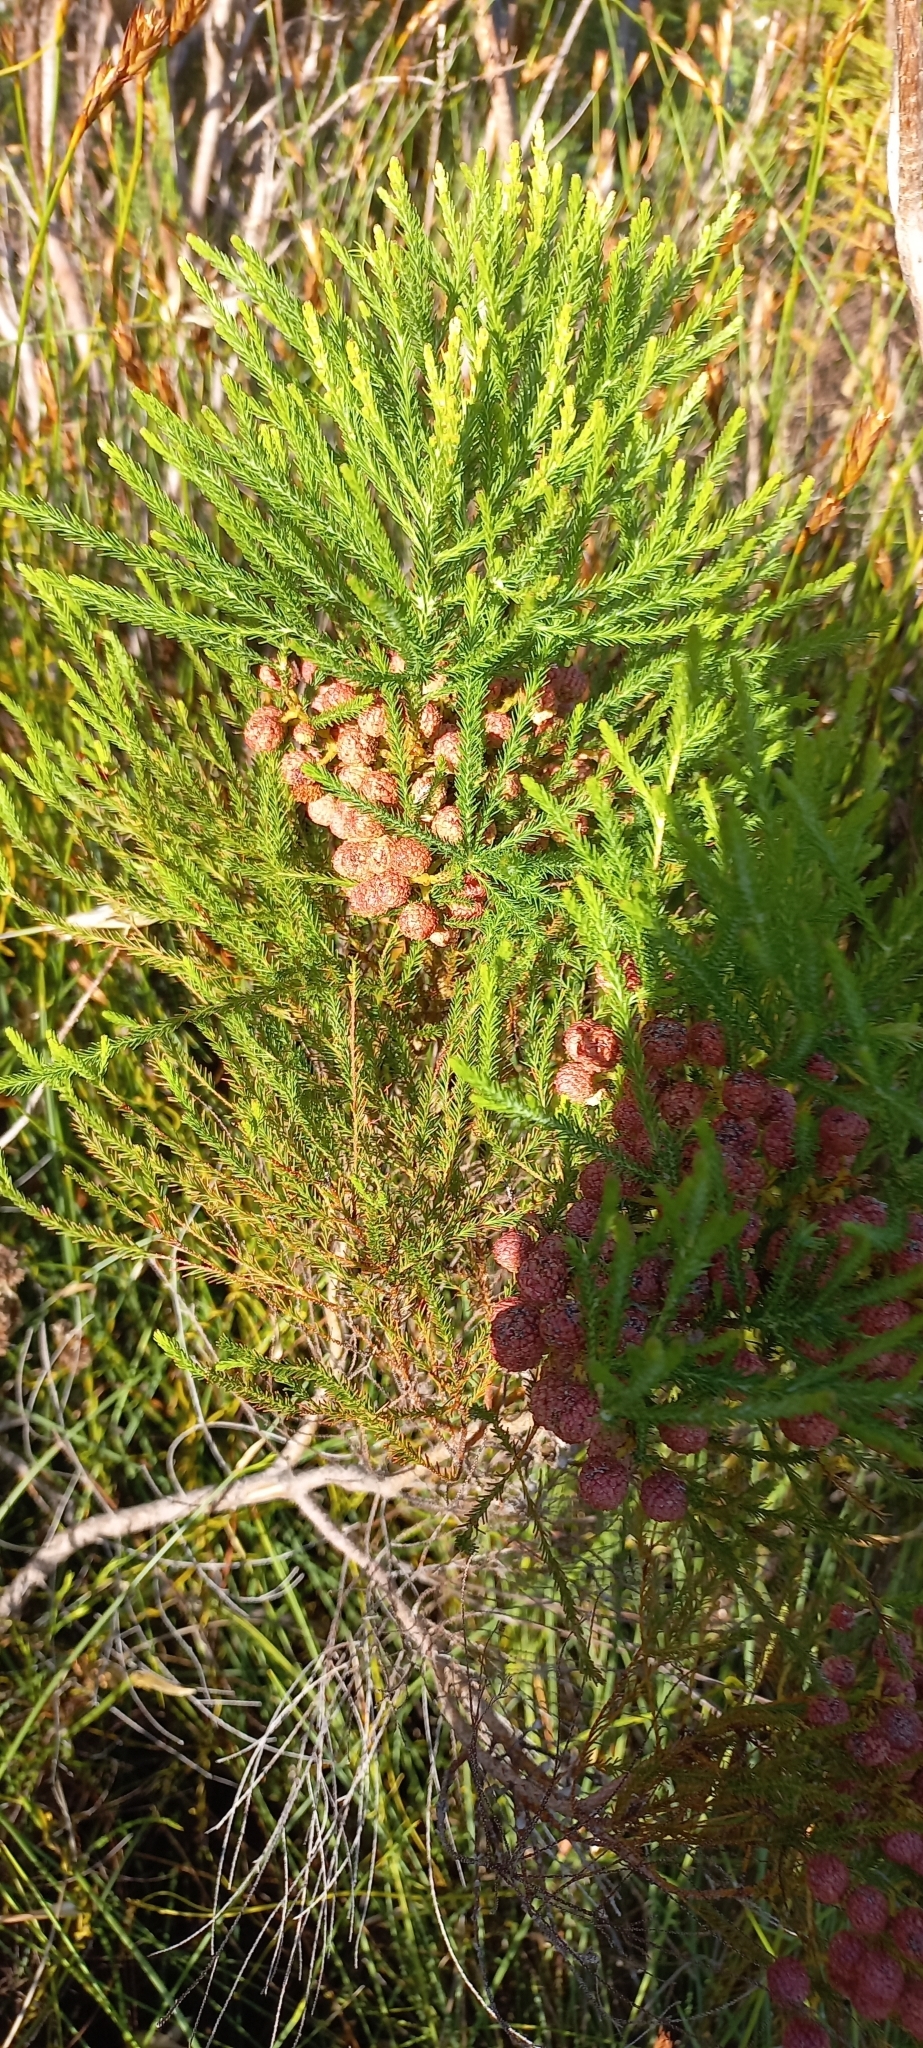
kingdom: Plantae
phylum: Tracheophyta
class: Magnoliopsida
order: Bruniales
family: Bruniaceae
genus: Berzelia
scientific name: Berzelia alopecurioides
